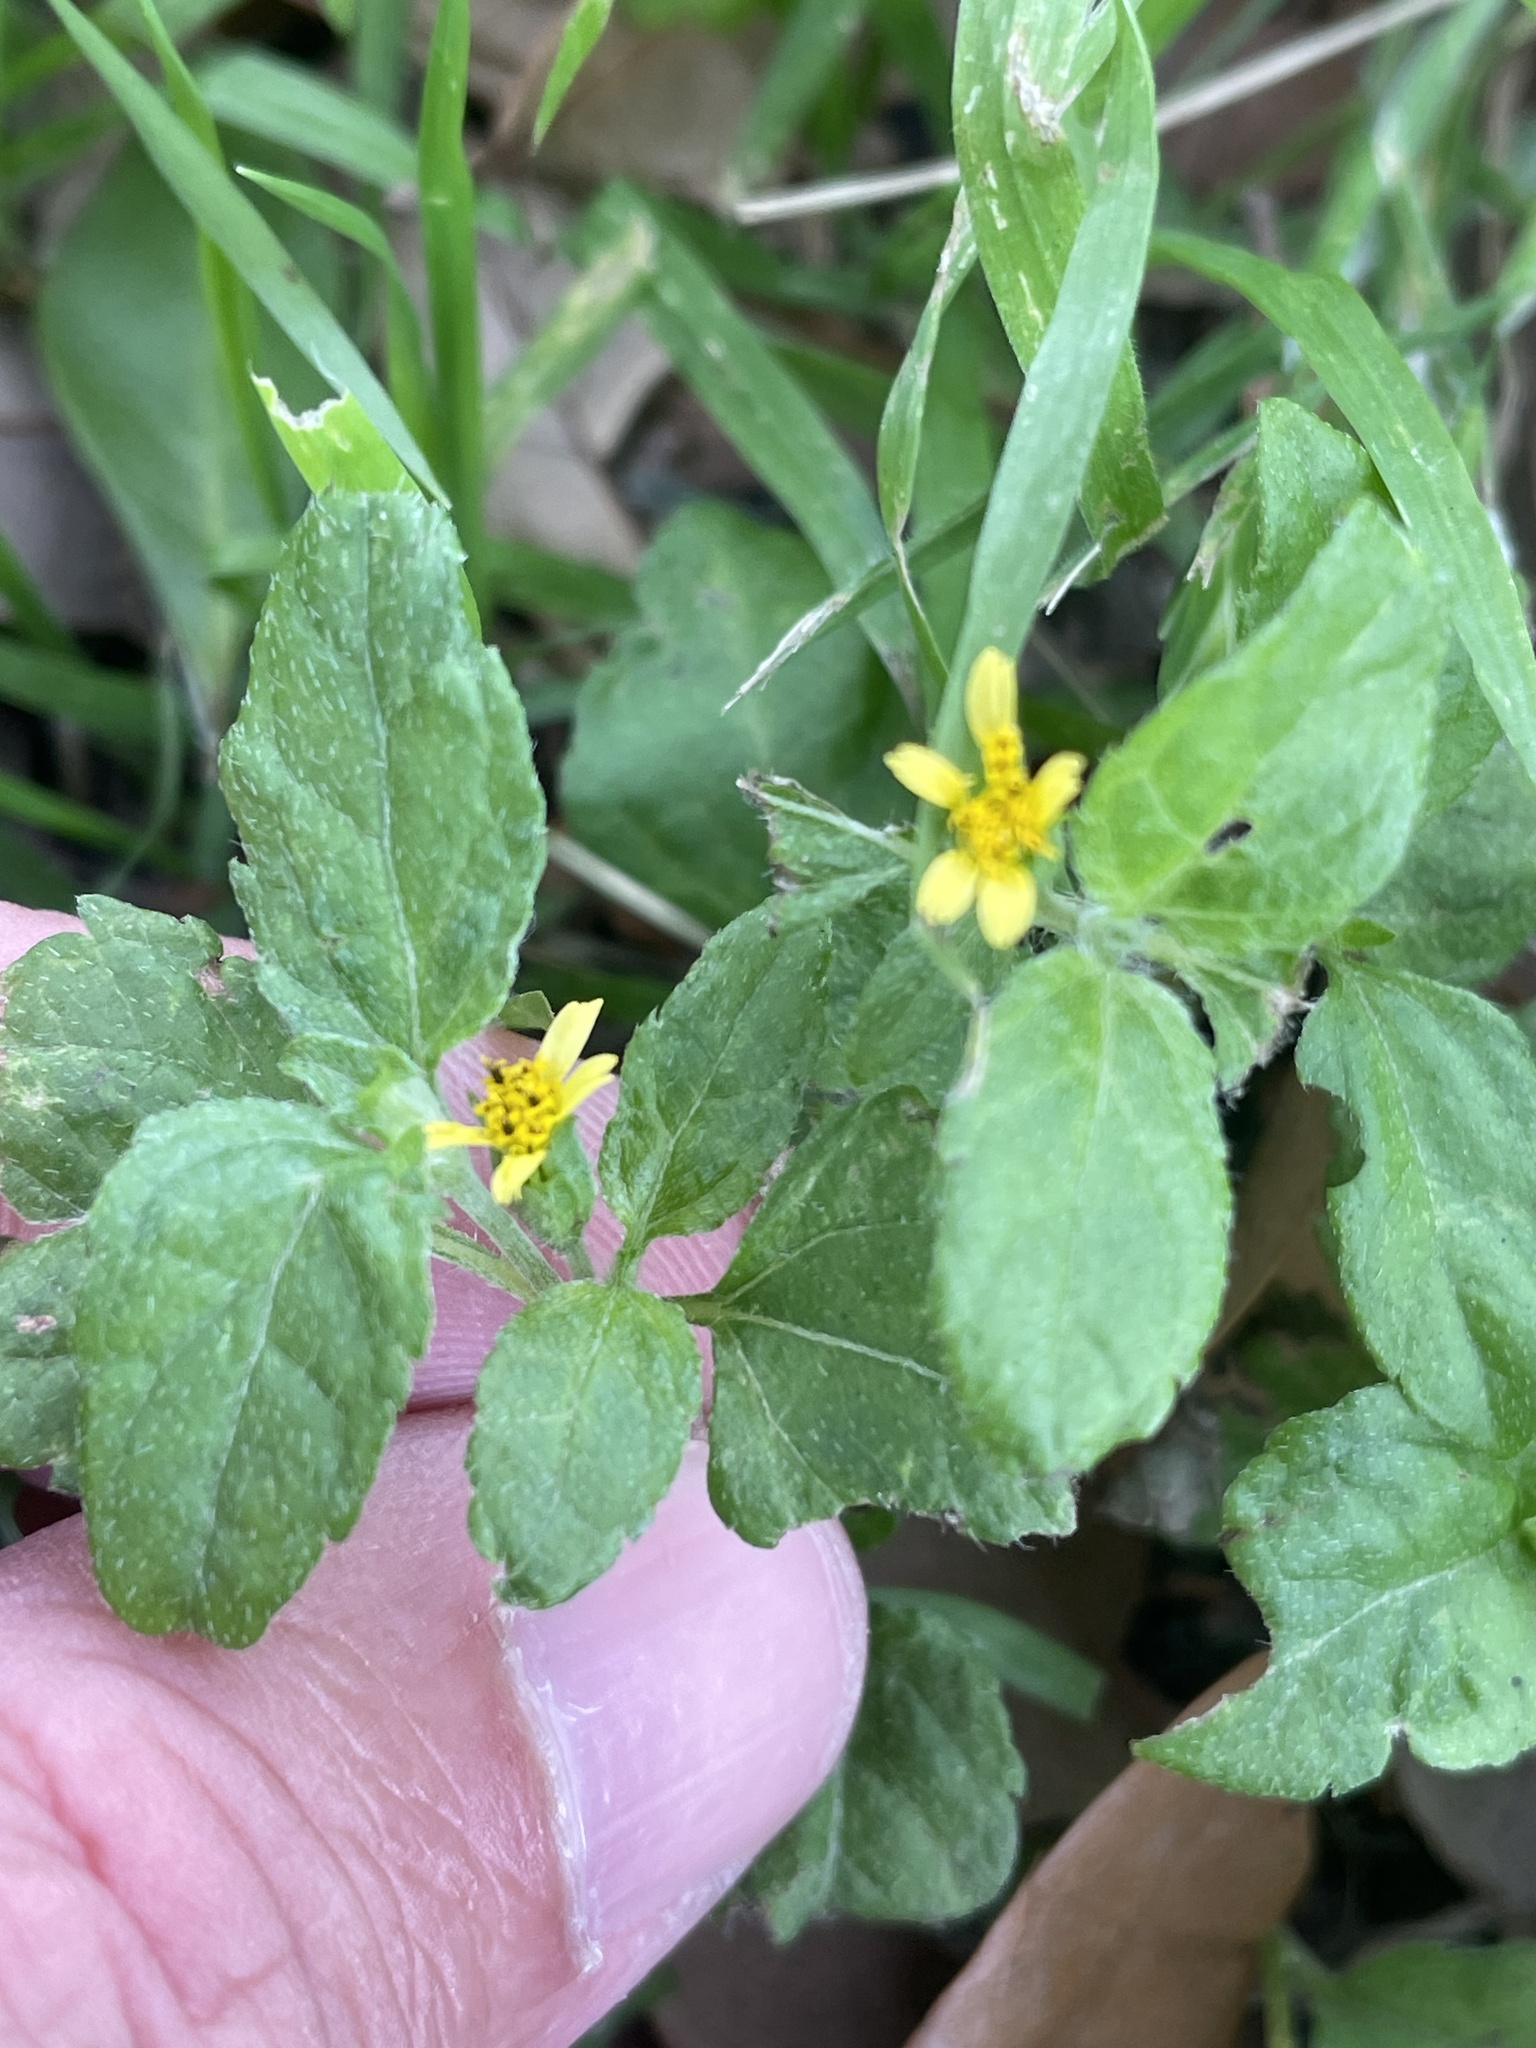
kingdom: Plantae
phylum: Tracheophyta
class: Magnoliopsida
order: Asterales
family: Asteraceae
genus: Calyptocarpus
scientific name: Calyptocarpus vialis
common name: Straggler daisy
